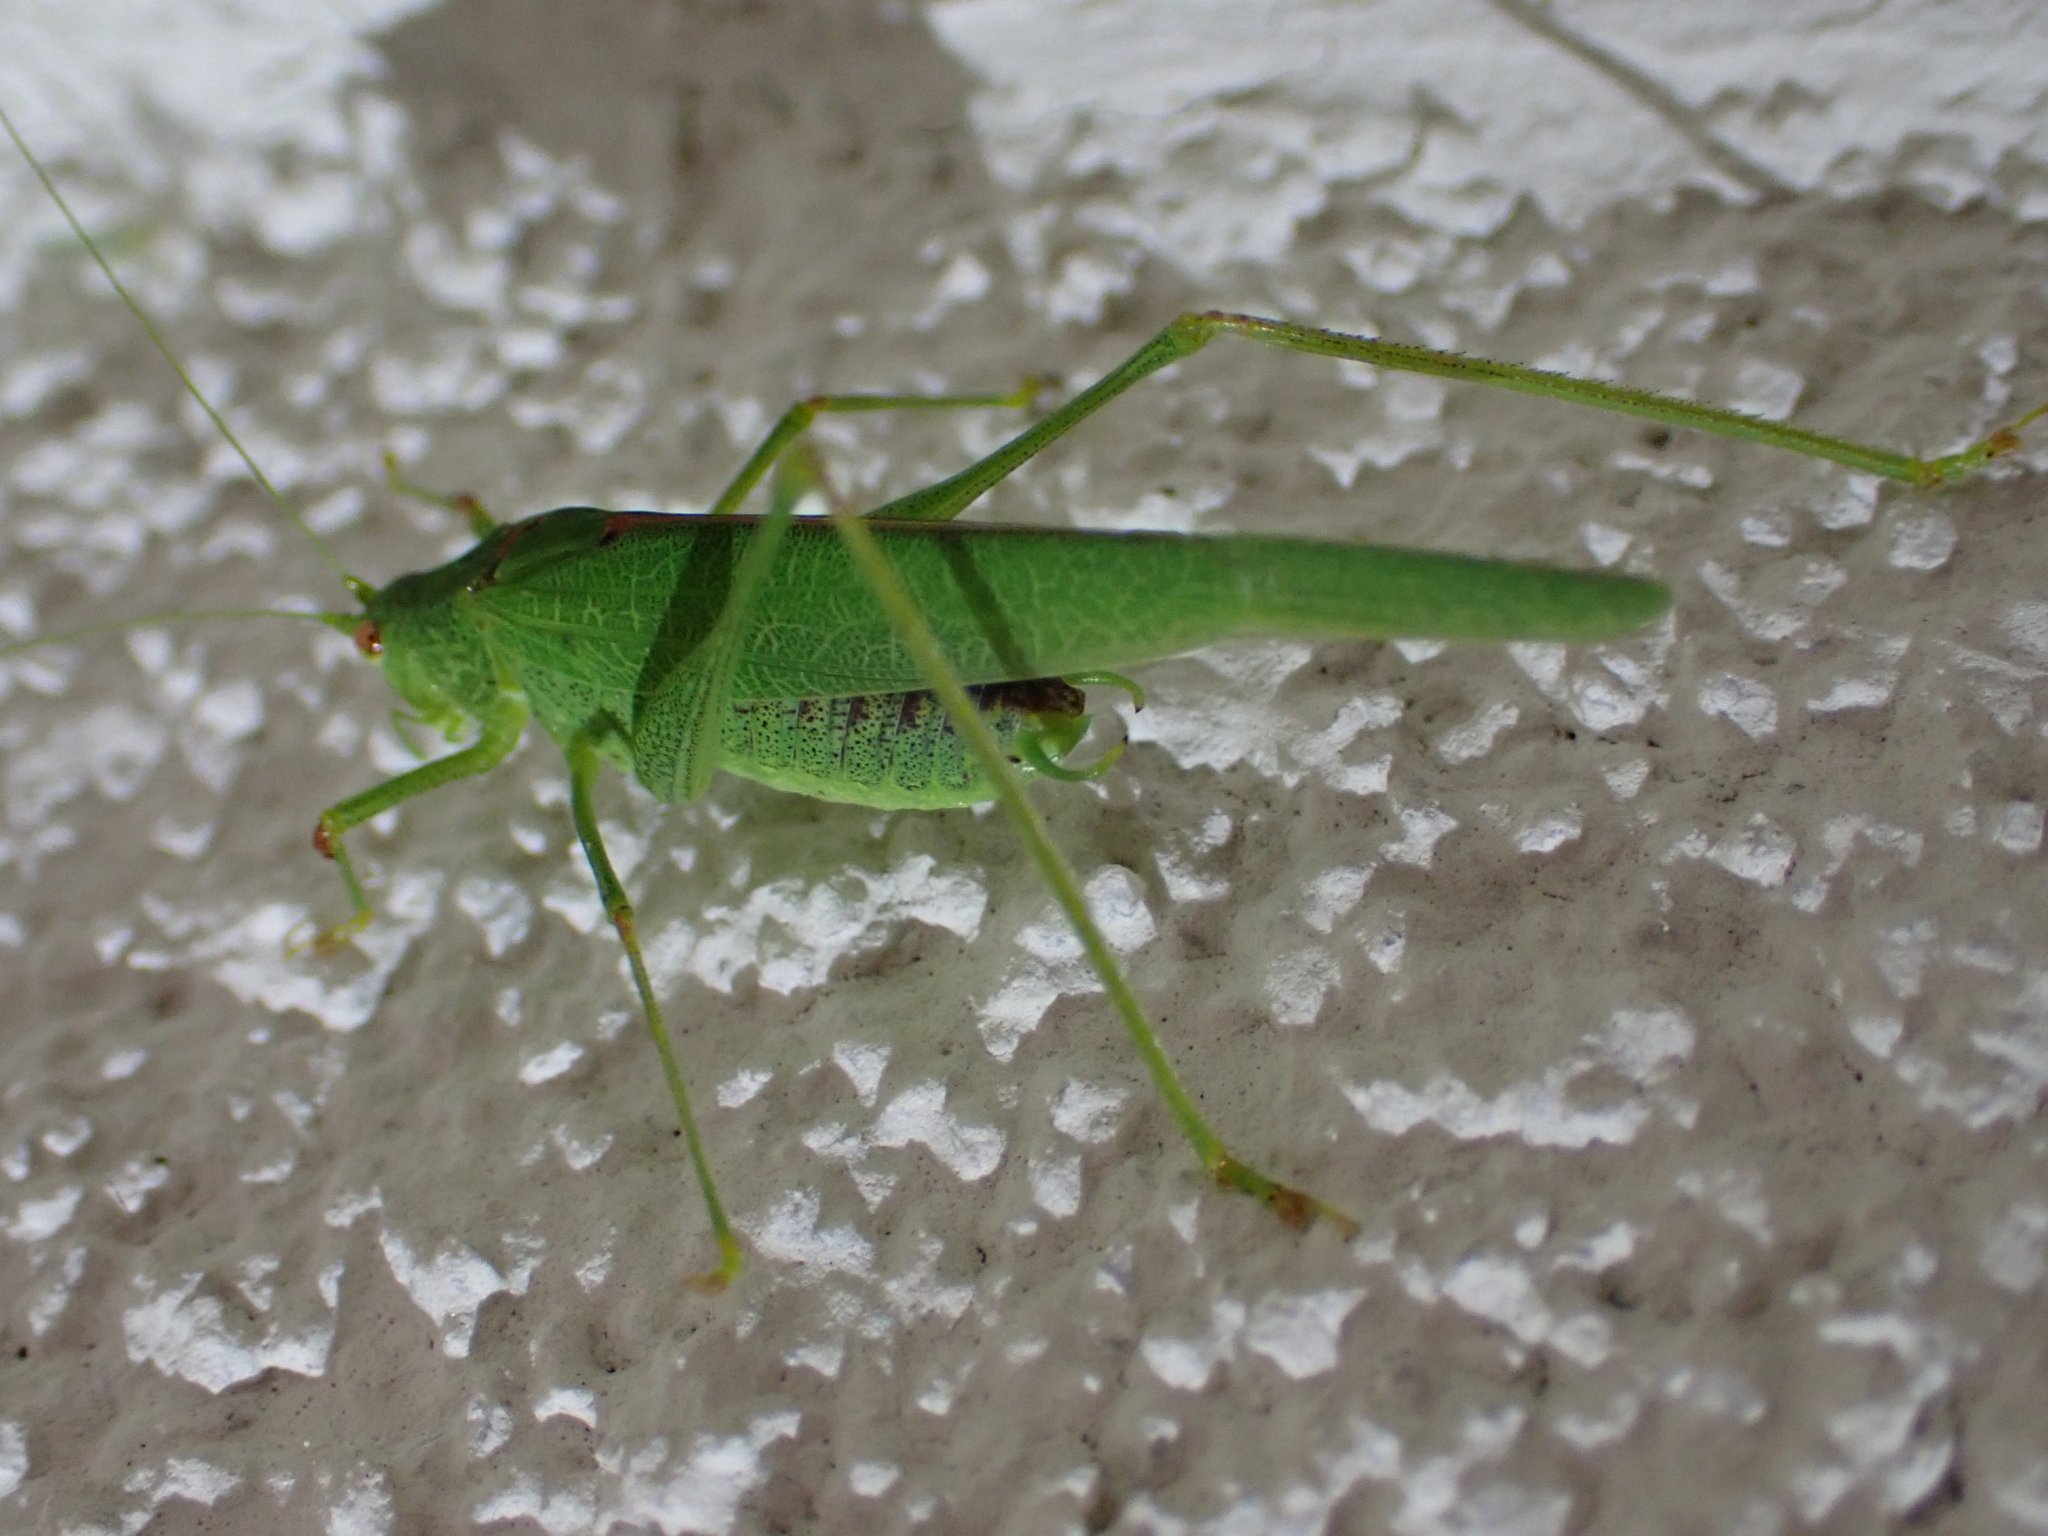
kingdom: Animalia
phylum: Arthropoda
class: Insecta
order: Orthoptera
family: Tettigoniidae
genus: Phaneroptera
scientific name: Phaneroptera nana
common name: Southern sickle bush-cricket
